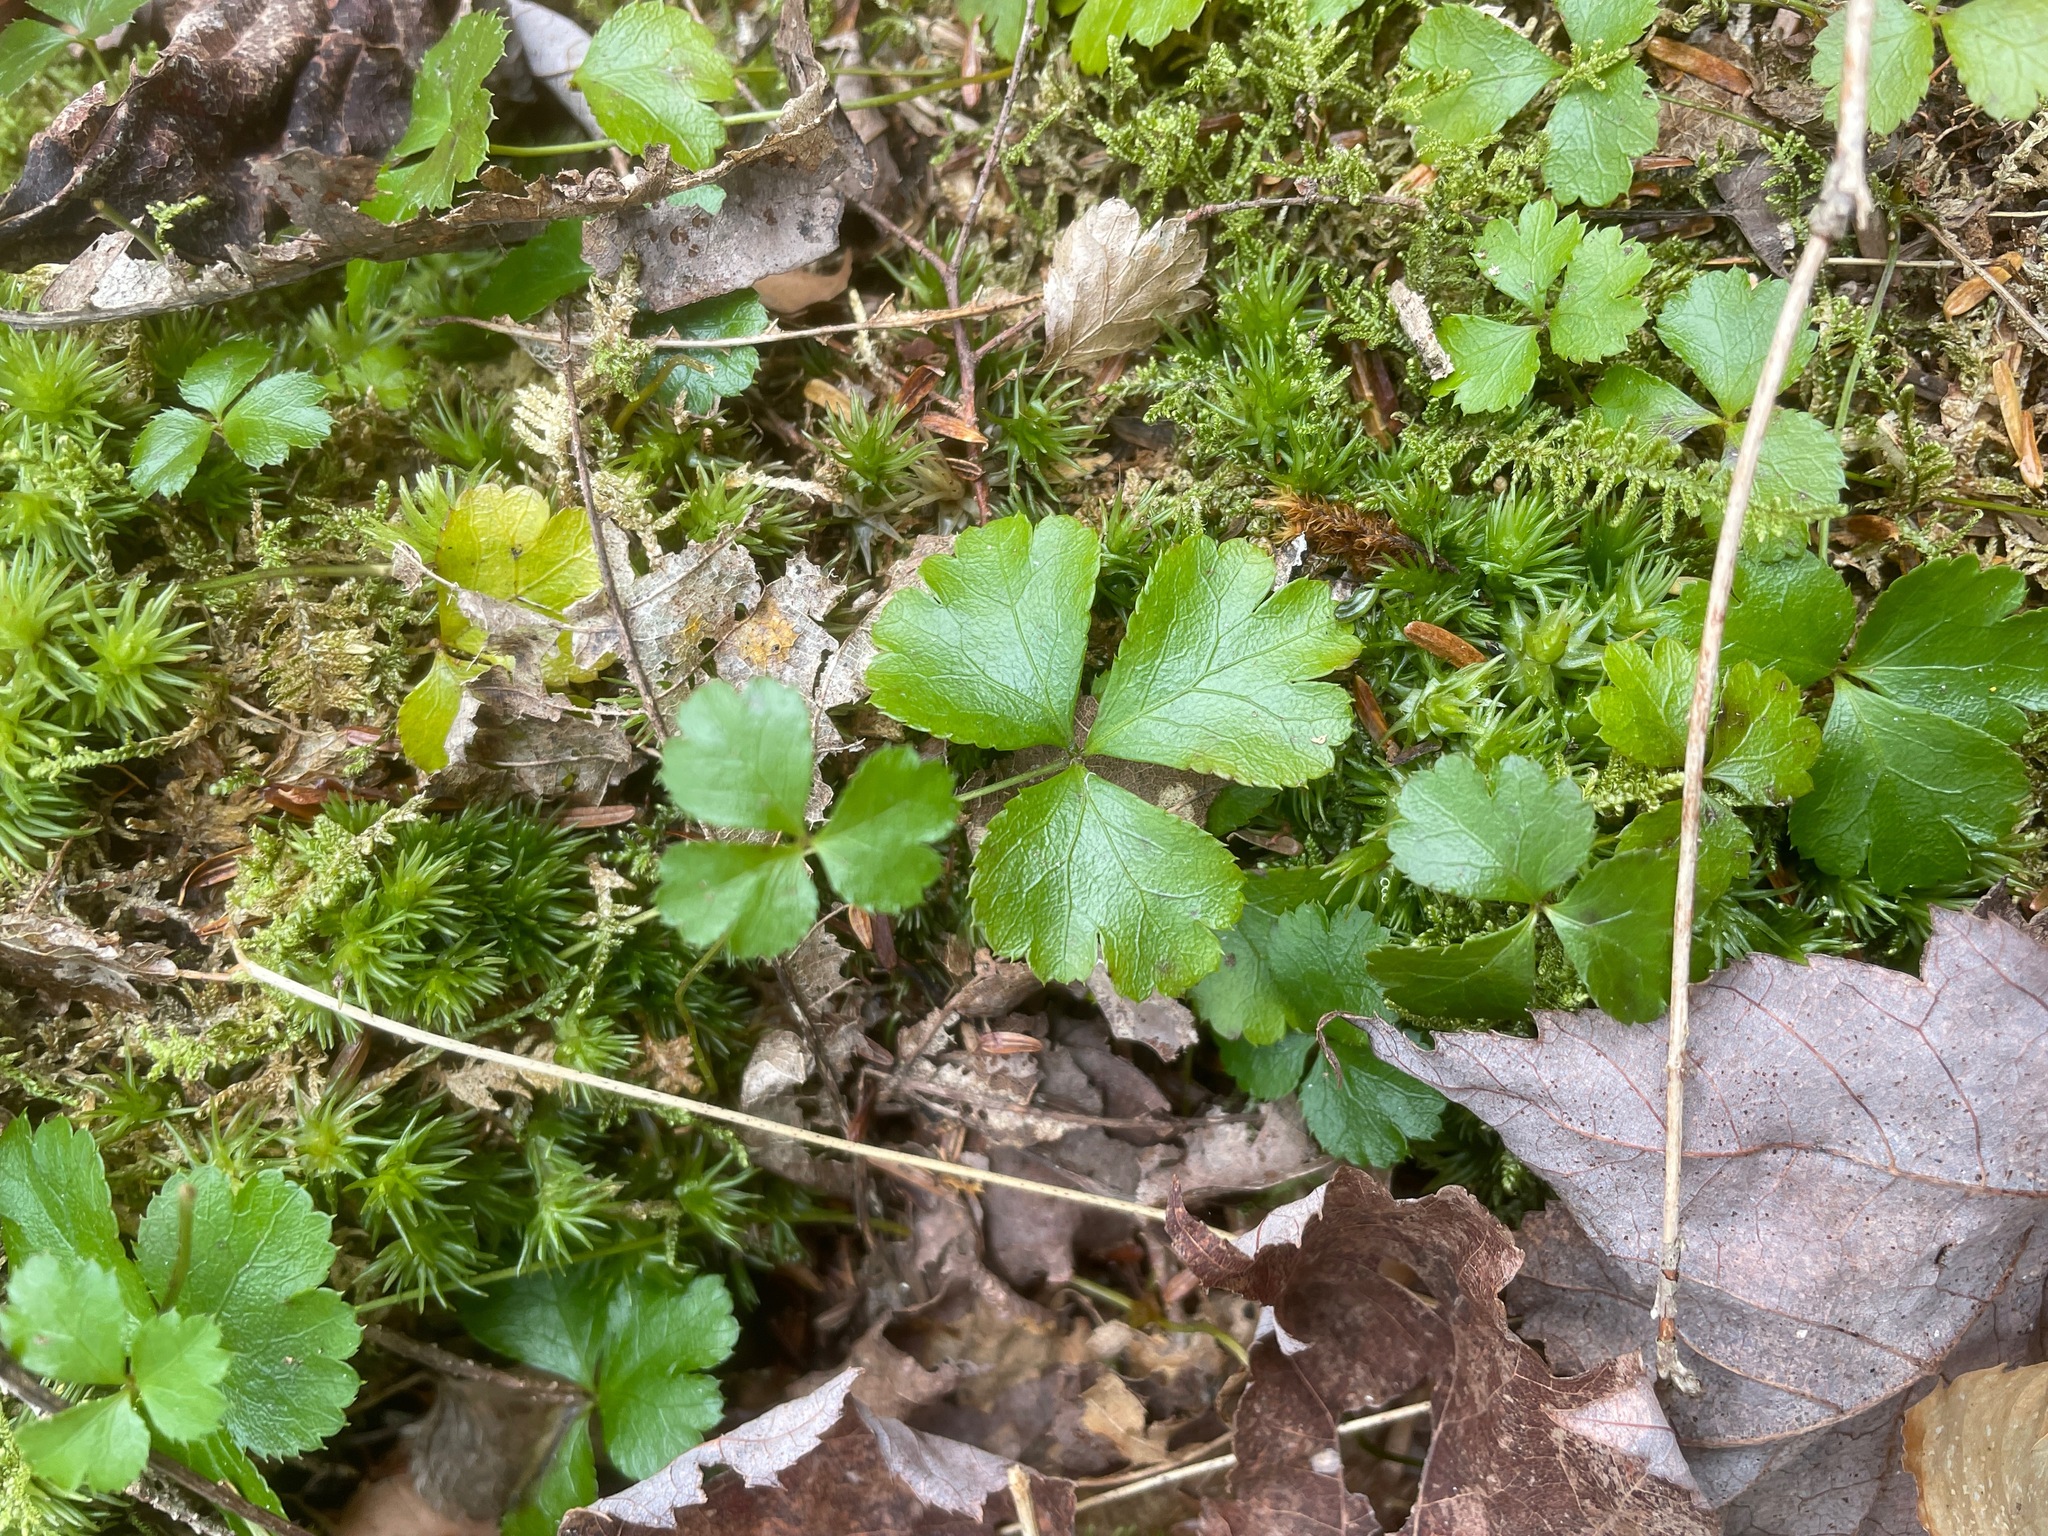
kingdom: Plantae
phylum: Tracheophyta
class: Magnoliopsida
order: Ranunculales
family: Ranunculaceae
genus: Coptis
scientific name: Coptis trifolia
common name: Canker-root
